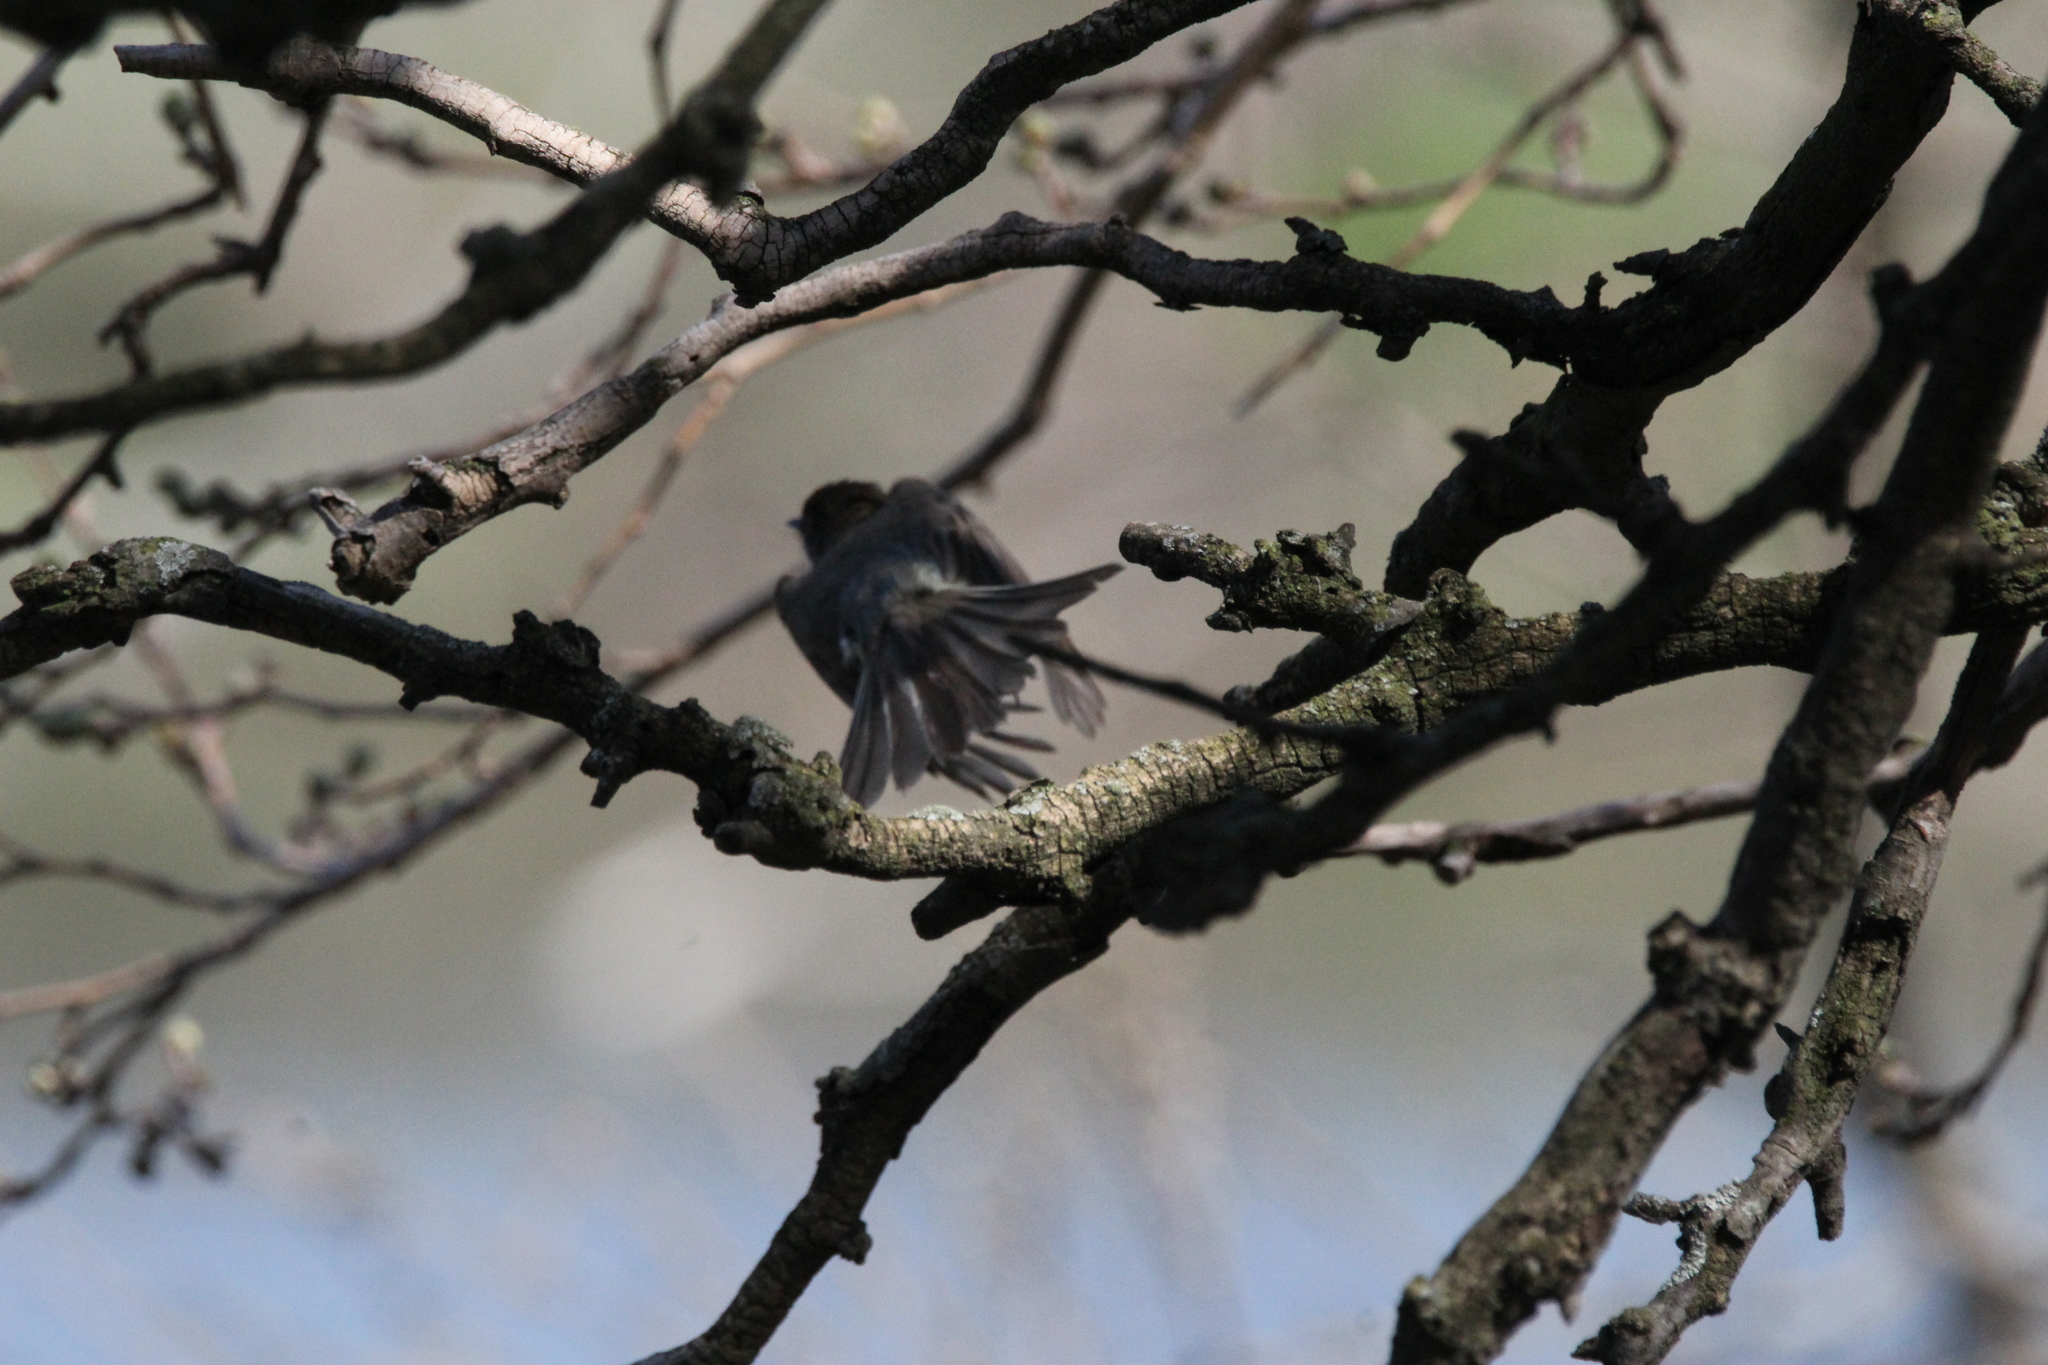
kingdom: Animalia
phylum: Chordata
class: Aves
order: Passeriformes
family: Tyrannidae
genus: Sayornis
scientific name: Sayornis phoebe
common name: Eastern phoebe
